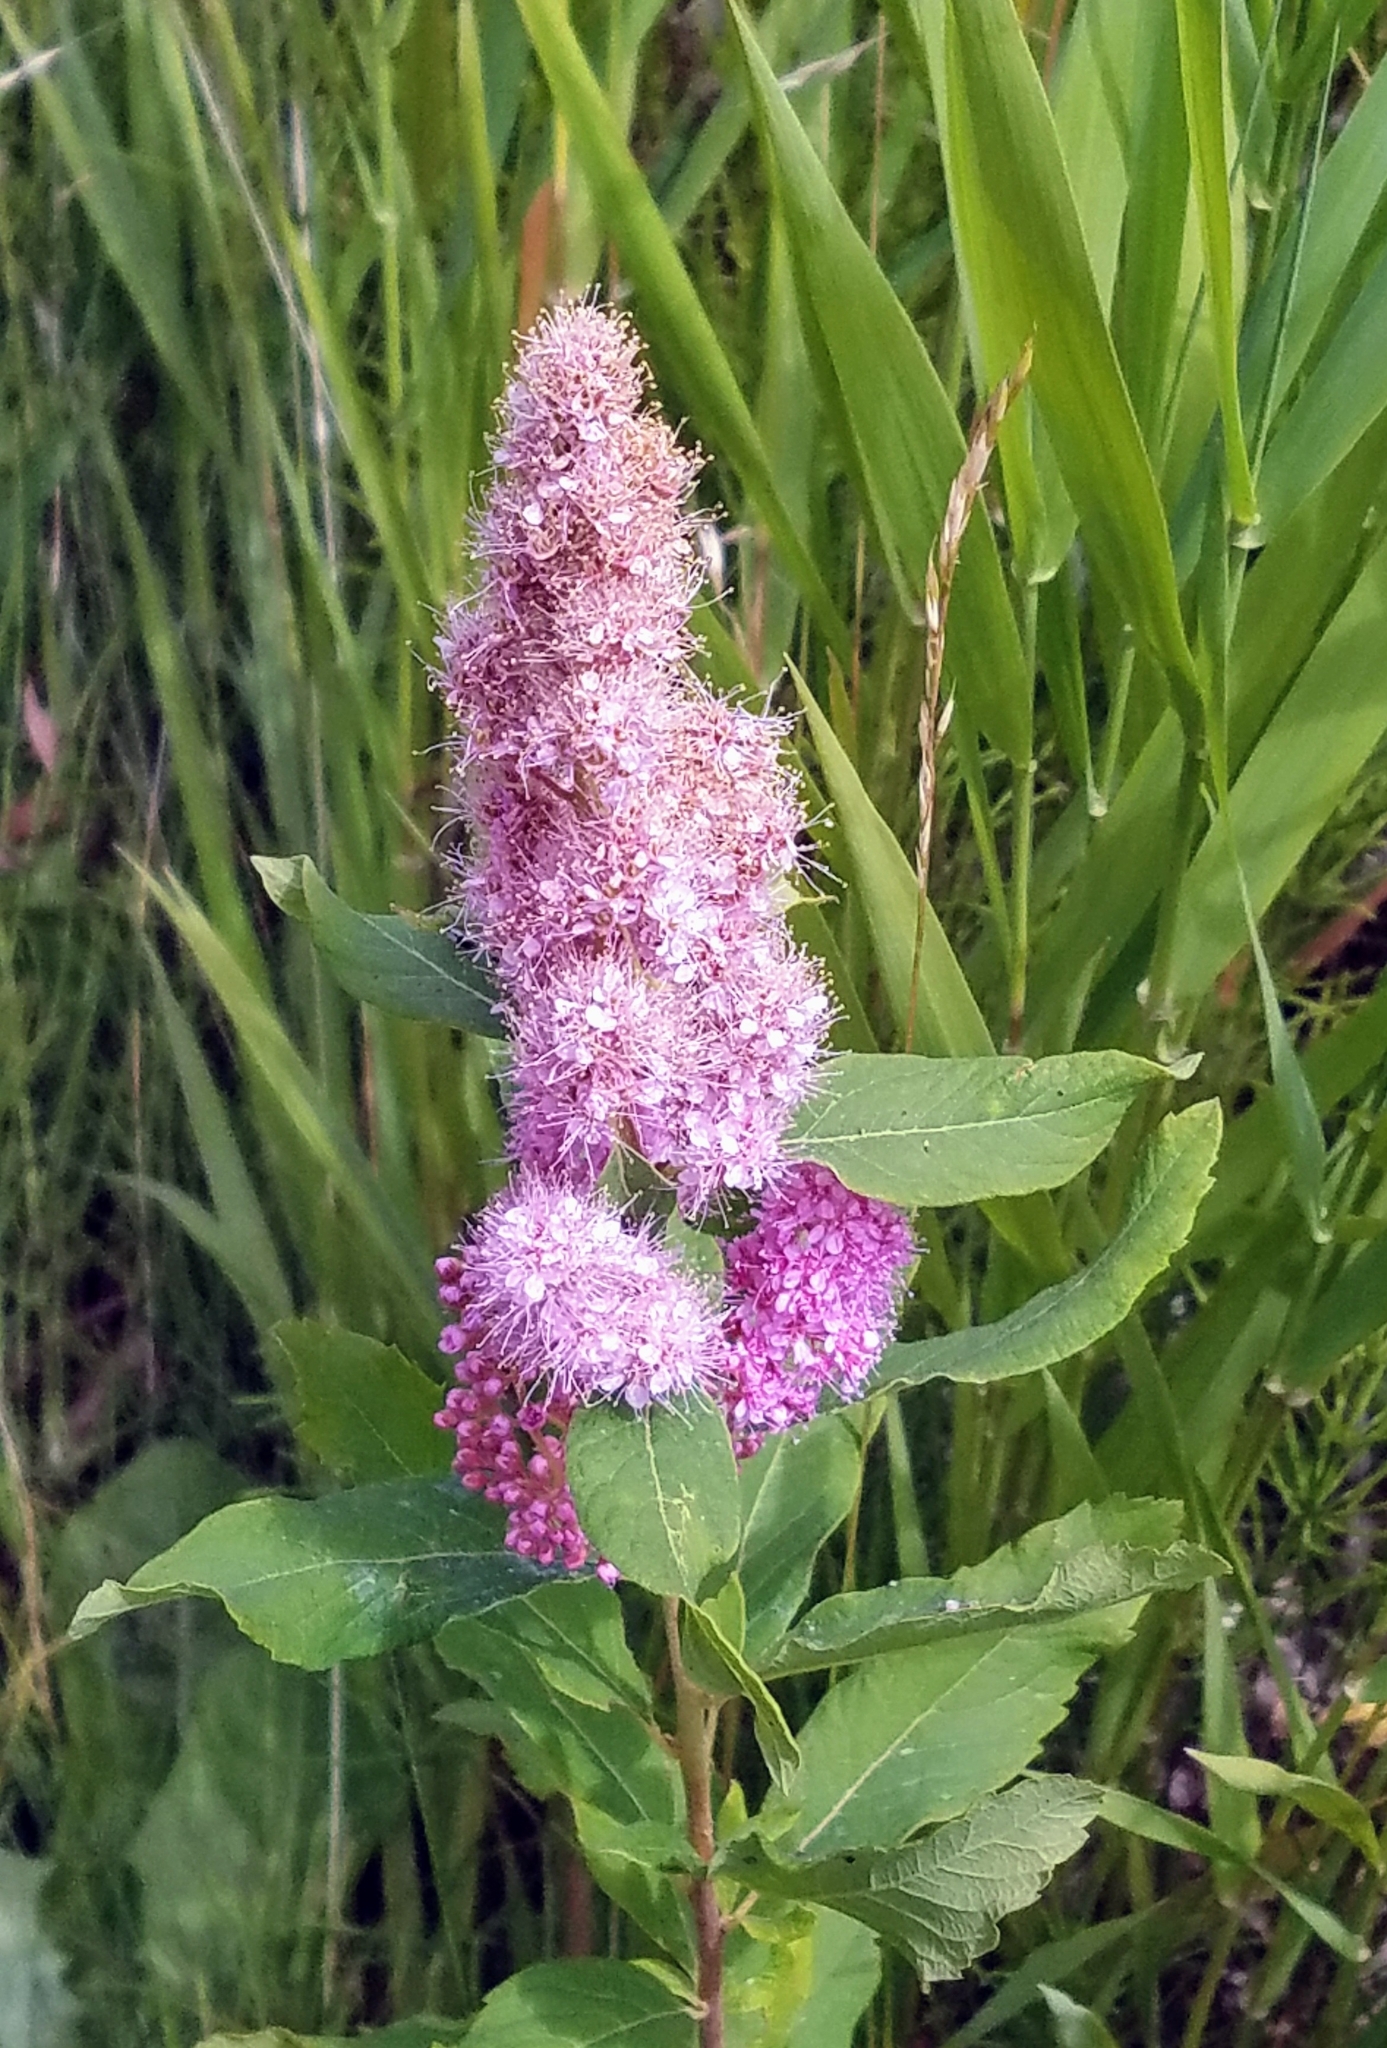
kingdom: Plantae
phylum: Tracheophyta
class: Magnoliopsida
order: Rosales
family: Rosaceae
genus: Spiraea
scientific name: Spiraea douglasii
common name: Steeplebush
